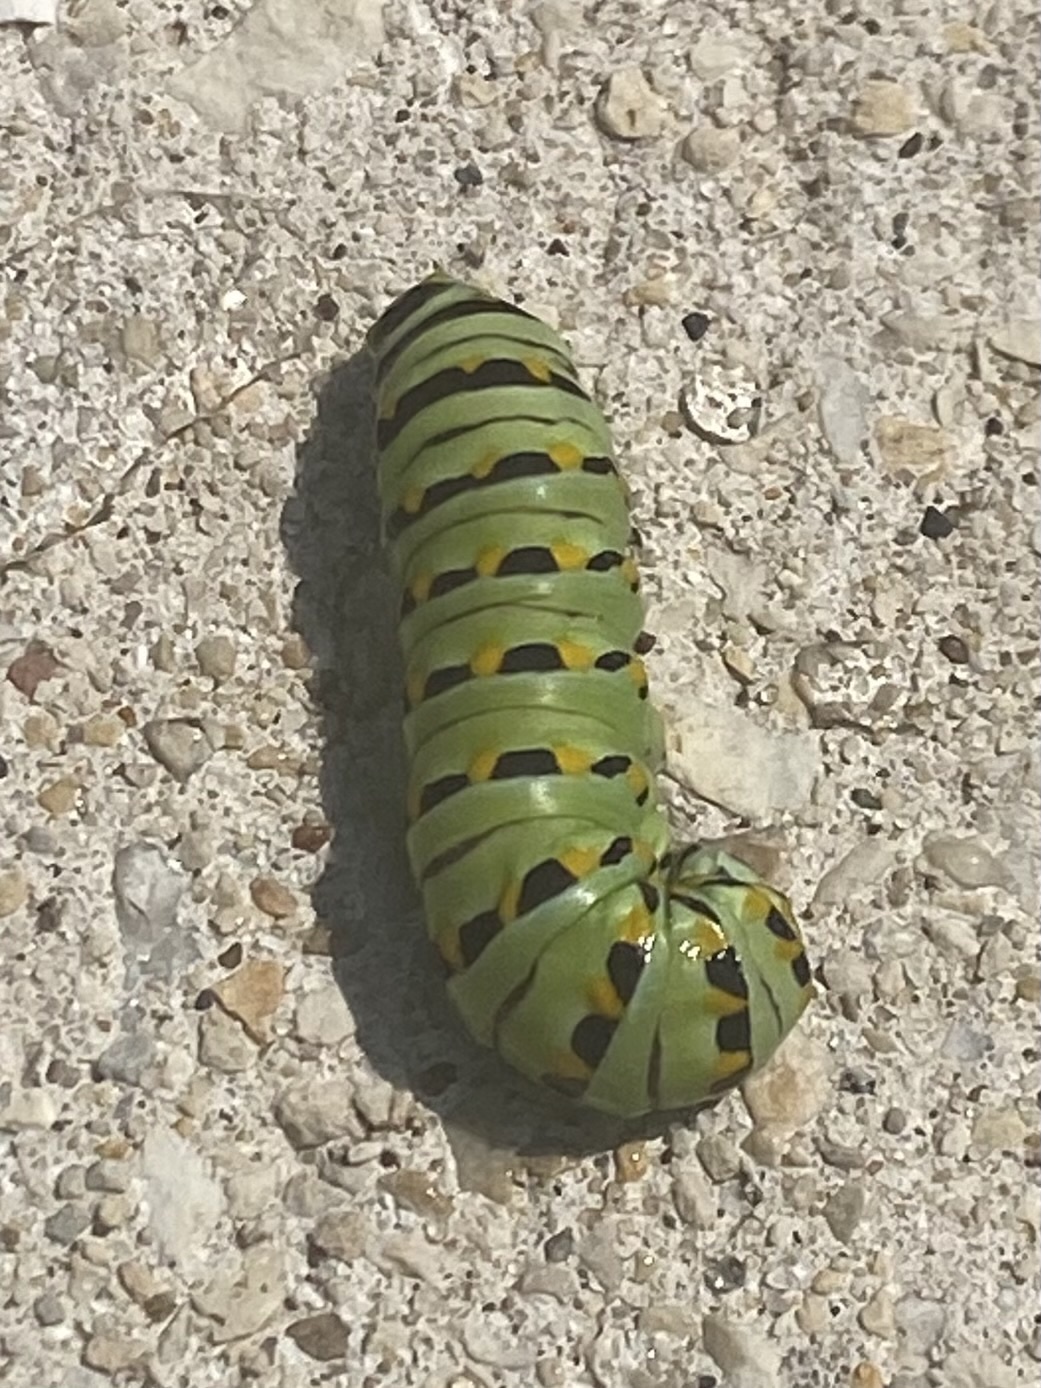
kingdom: Animalia
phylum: Arthropoda
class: Insecta
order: Lepidoptera
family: Papilionidae
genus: Papilio
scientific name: Papilio polyxenes
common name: Black swallowtail
